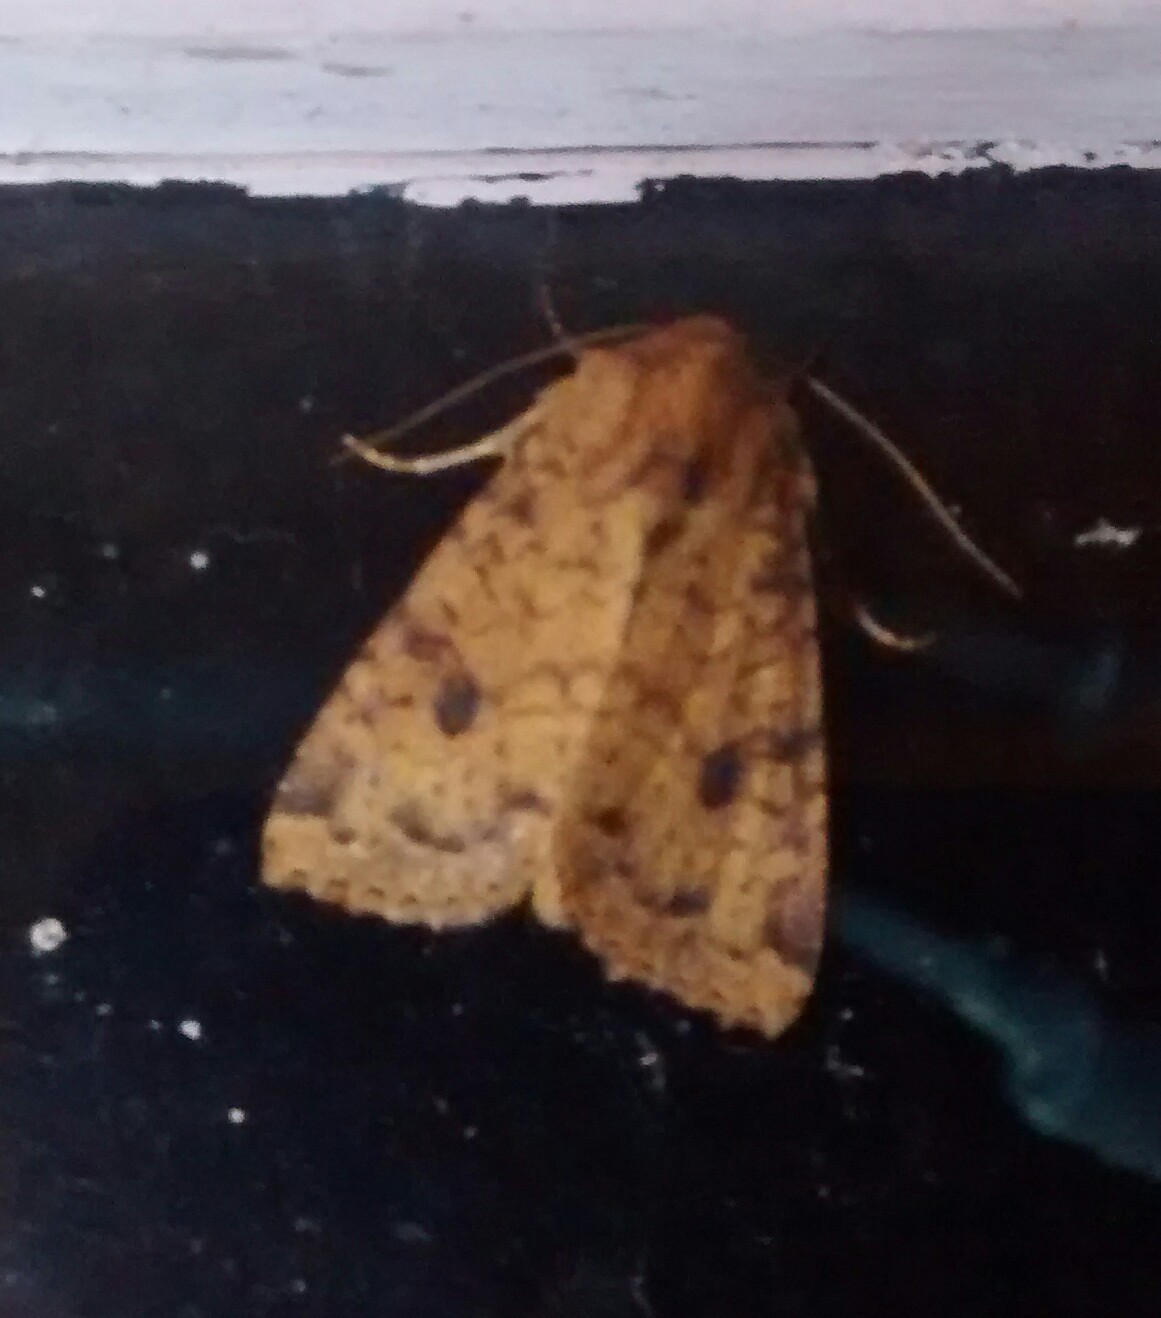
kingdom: Animalia
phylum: Arthropoda
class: Insecta
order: Lepidoptera
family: Noctuidae
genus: Apamea
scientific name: Apamea helva
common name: Yellow three-spot
